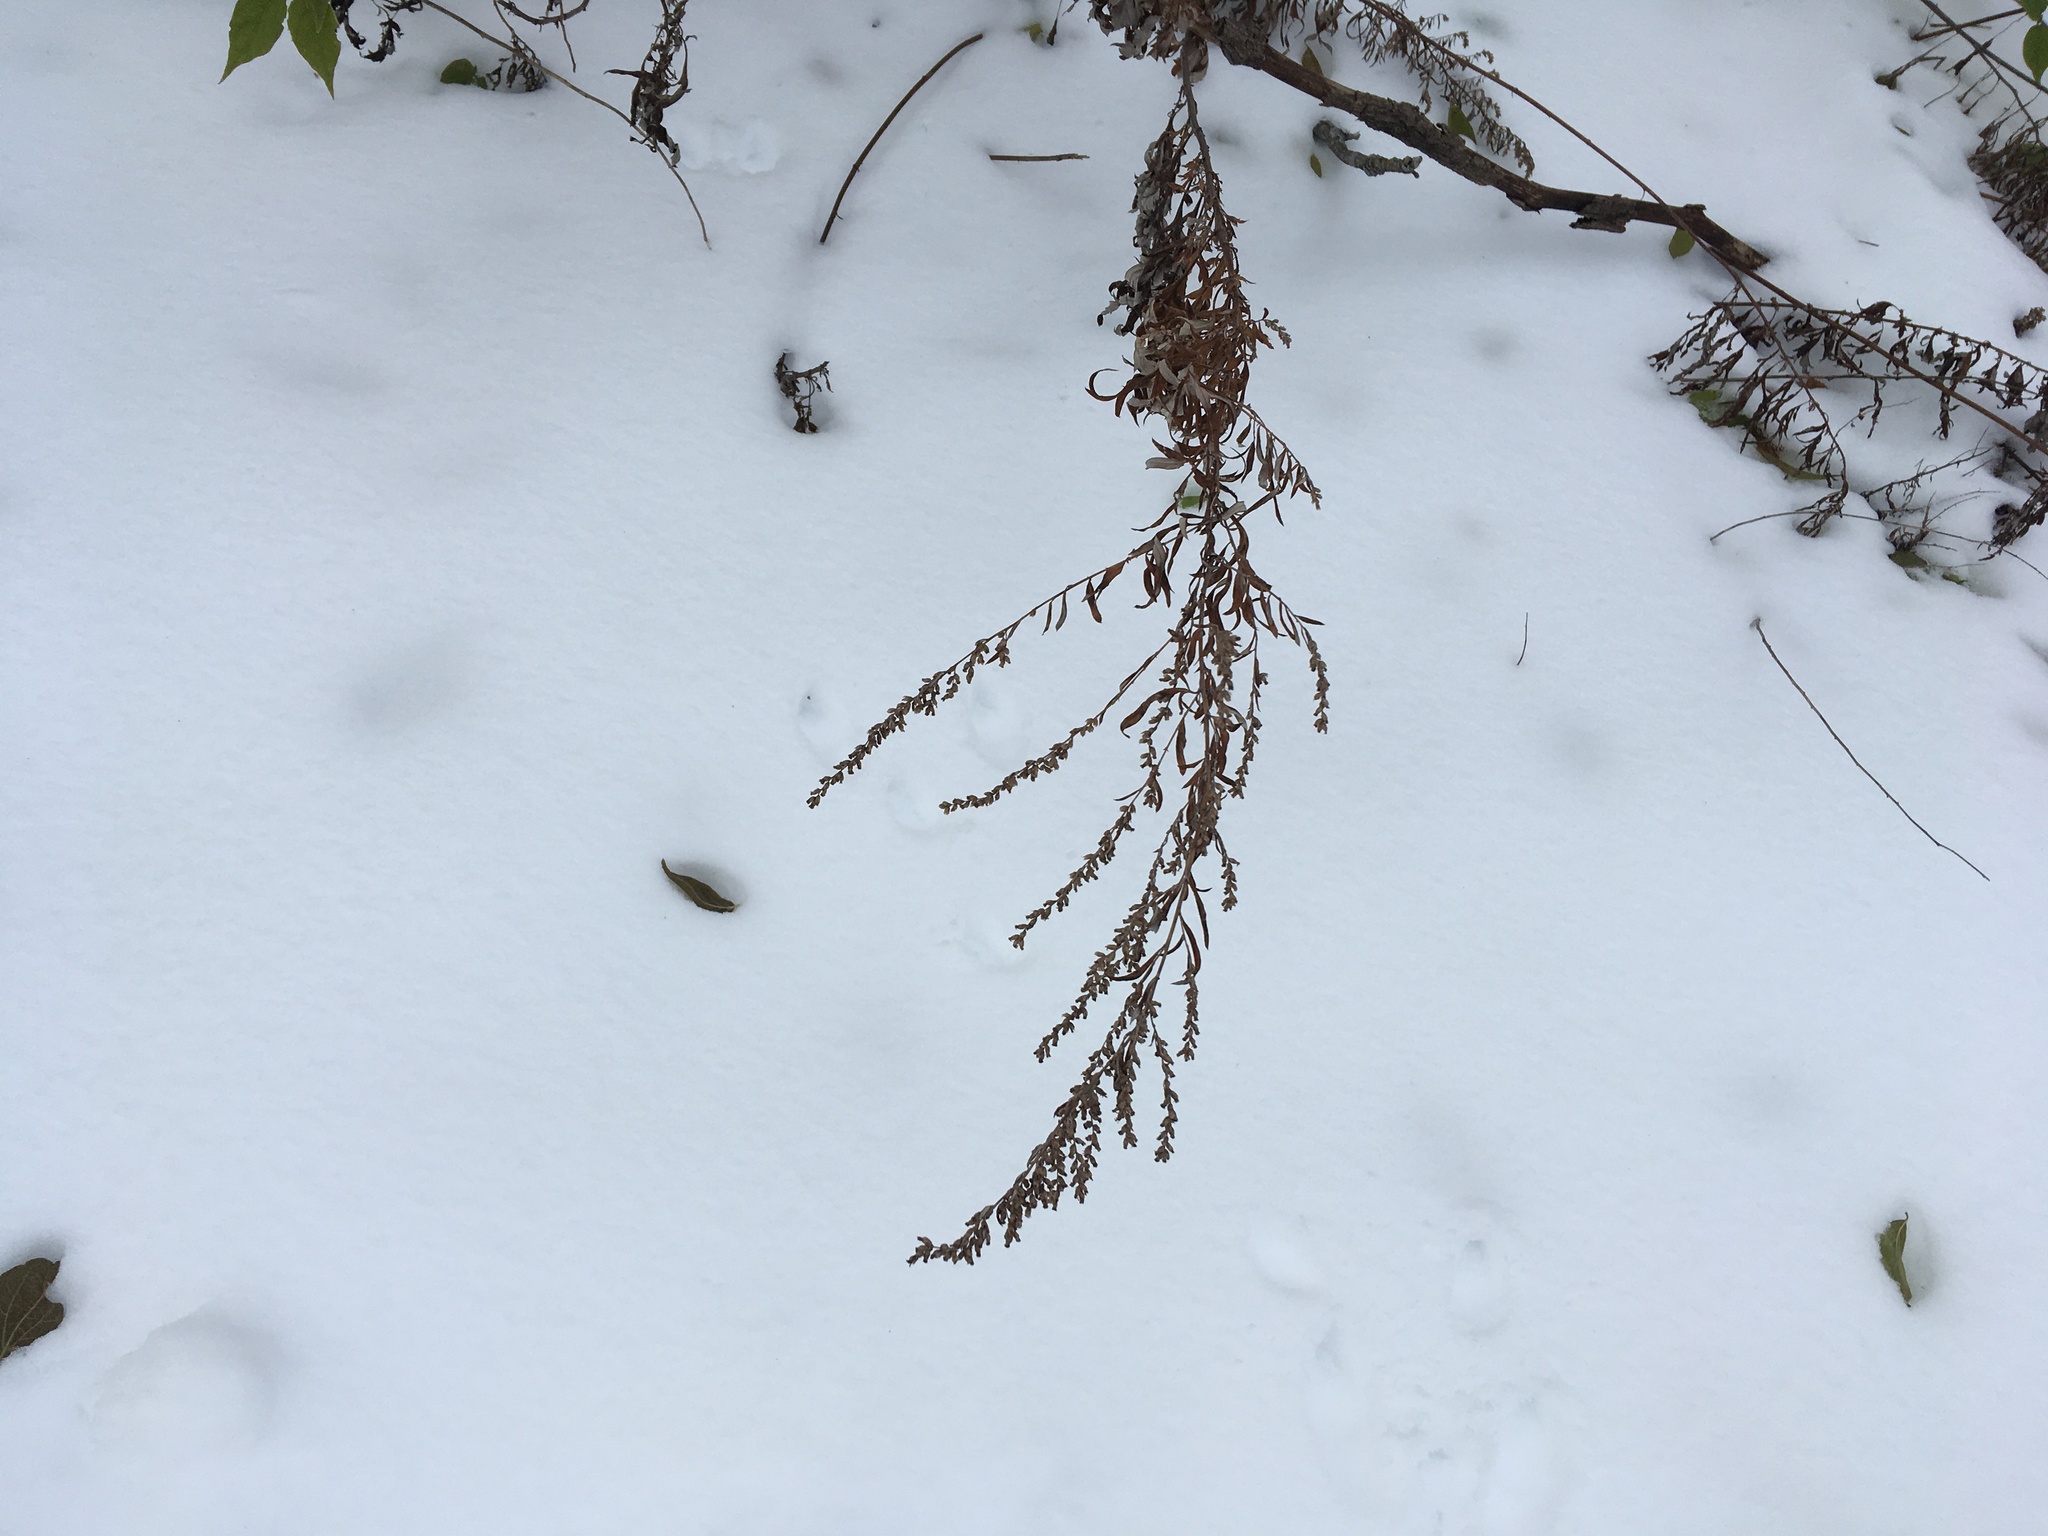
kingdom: Plantae
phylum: Tracheophyta
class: Magnoliopsida
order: Asterales
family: Asteraceae
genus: Artemisia
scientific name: Artemisia vulgaris
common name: Mugwort
